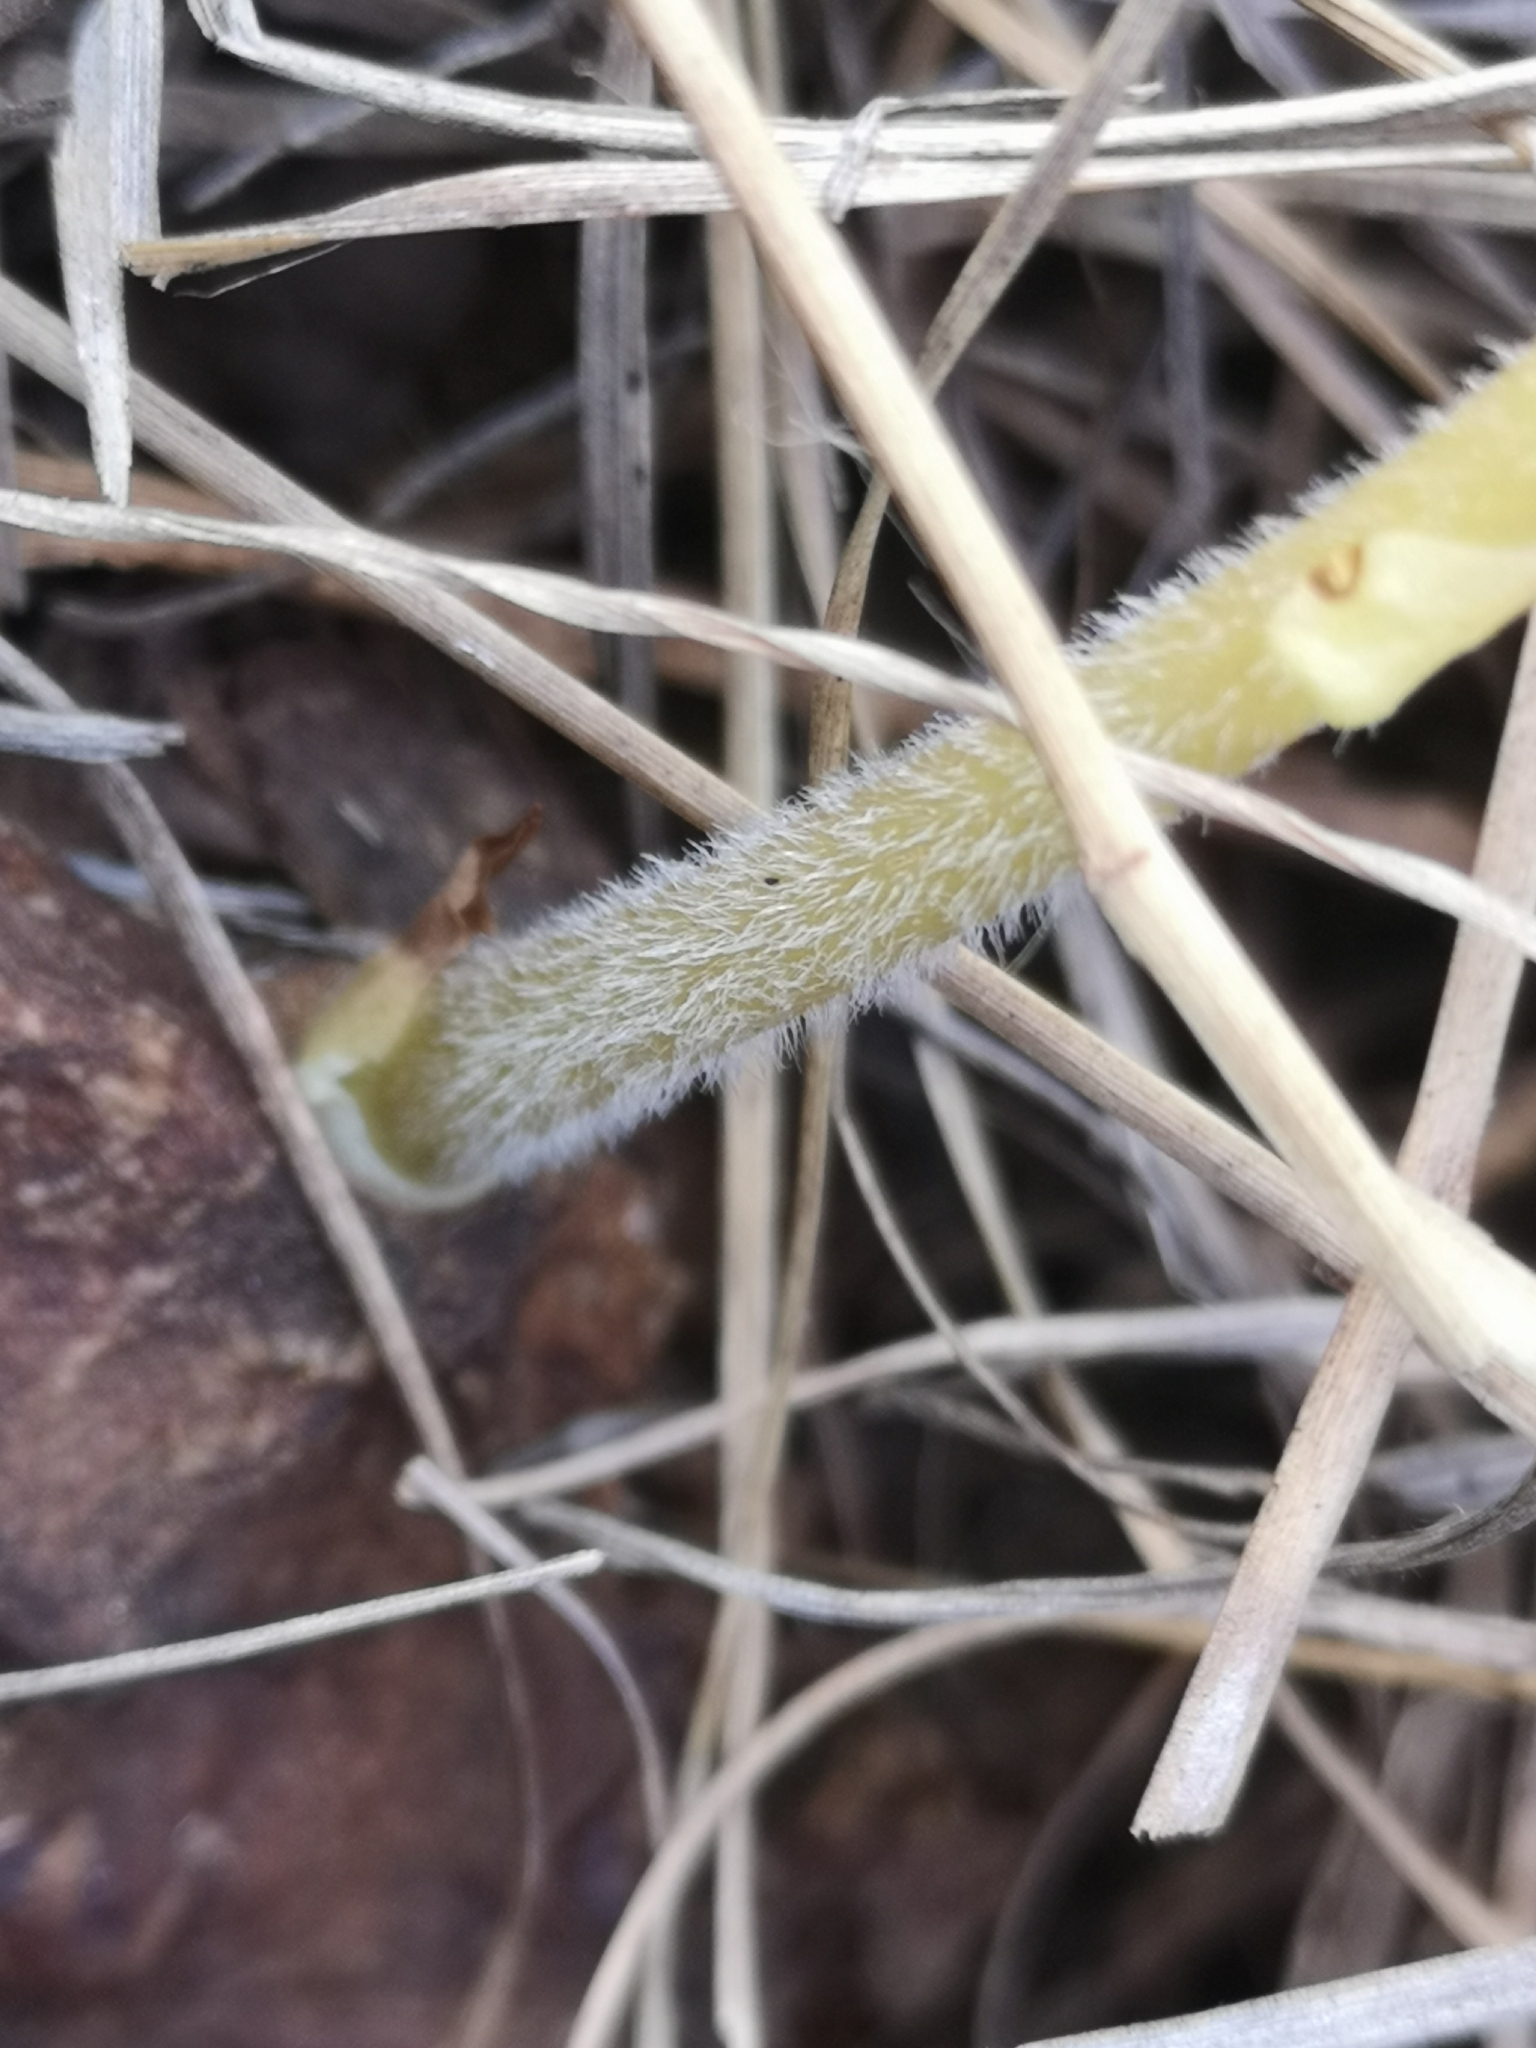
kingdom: Plantae
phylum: Tracheophyta
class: Liliopsida
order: Asparagales
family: Orchidaceae
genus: Holothrix
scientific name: Holothrix randii
